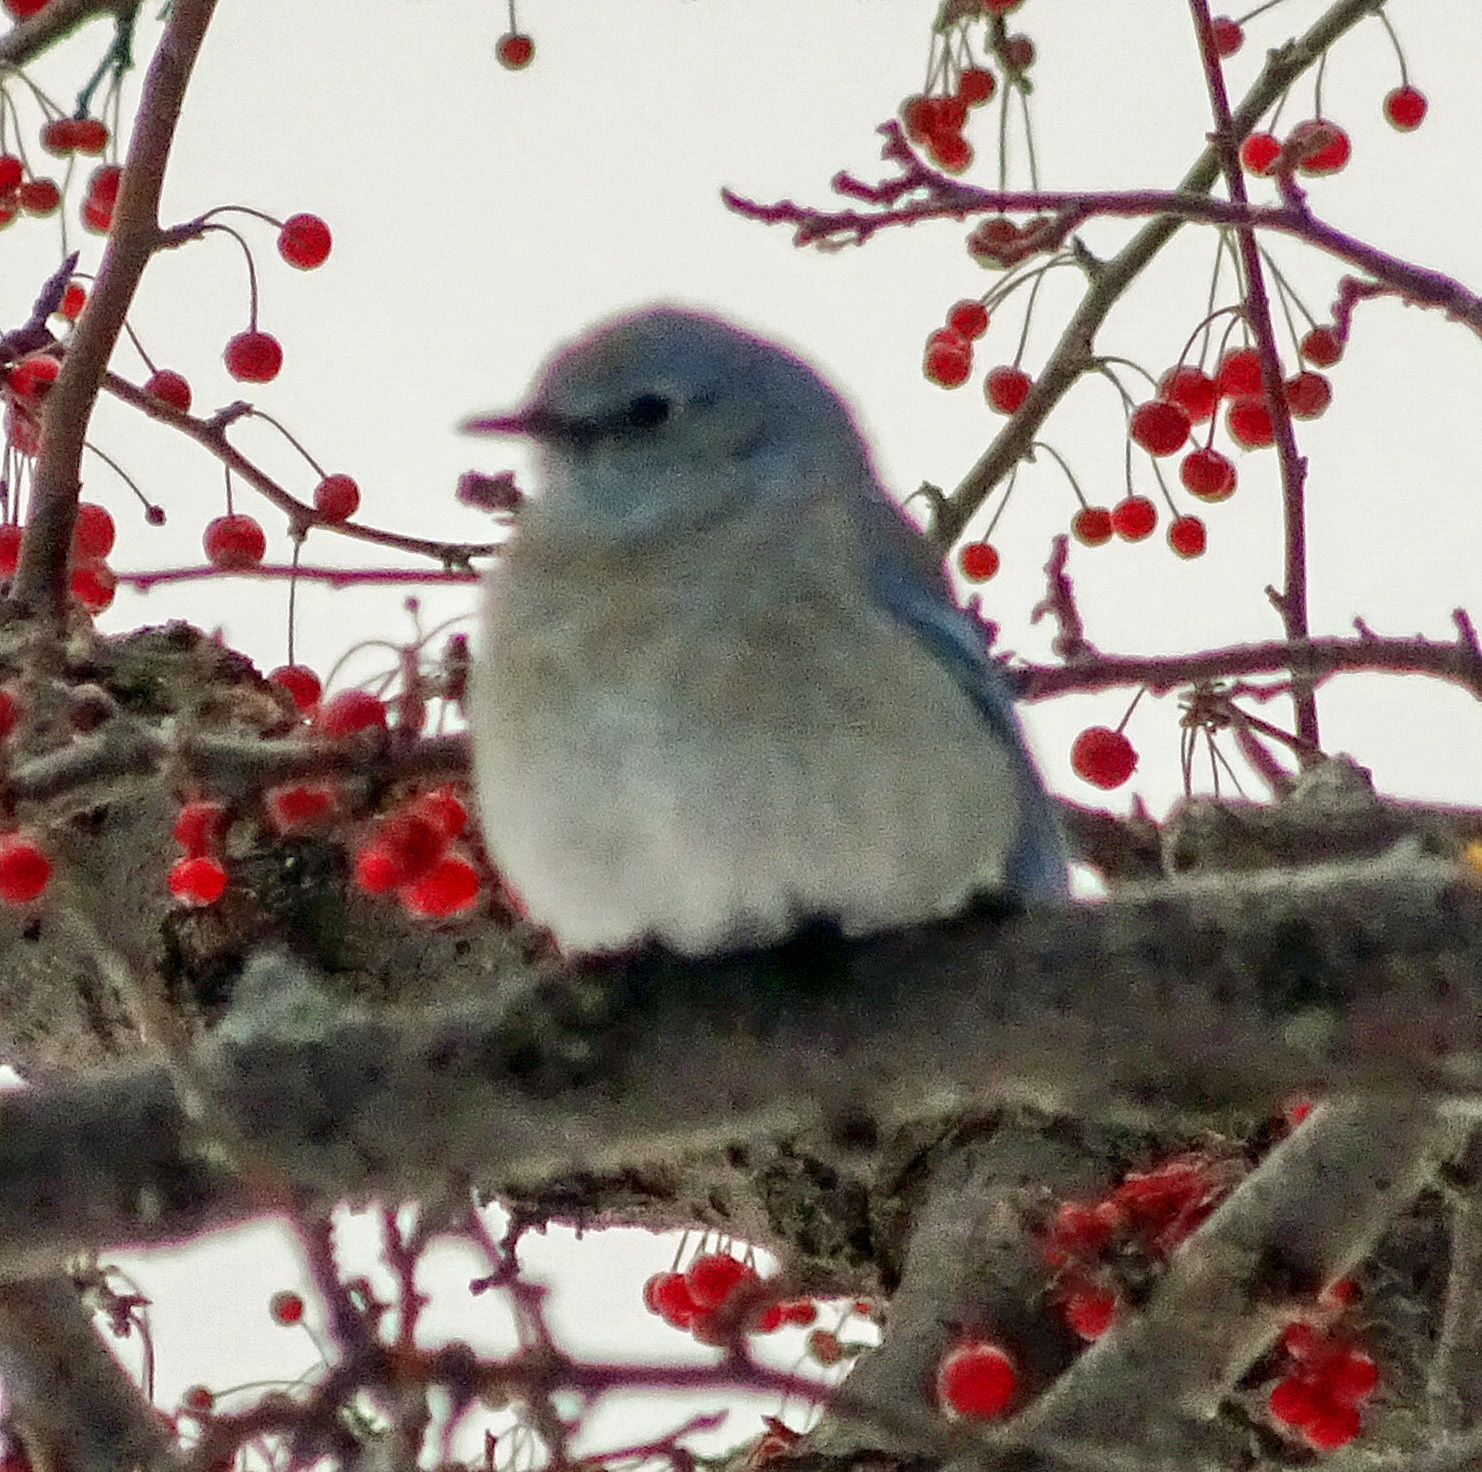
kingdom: Animalia
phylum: Chordata
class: Aves
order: Passeriformes
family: Turdidae
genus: Sialia
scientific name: Sialia currucoides
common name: Mountain bluebird
